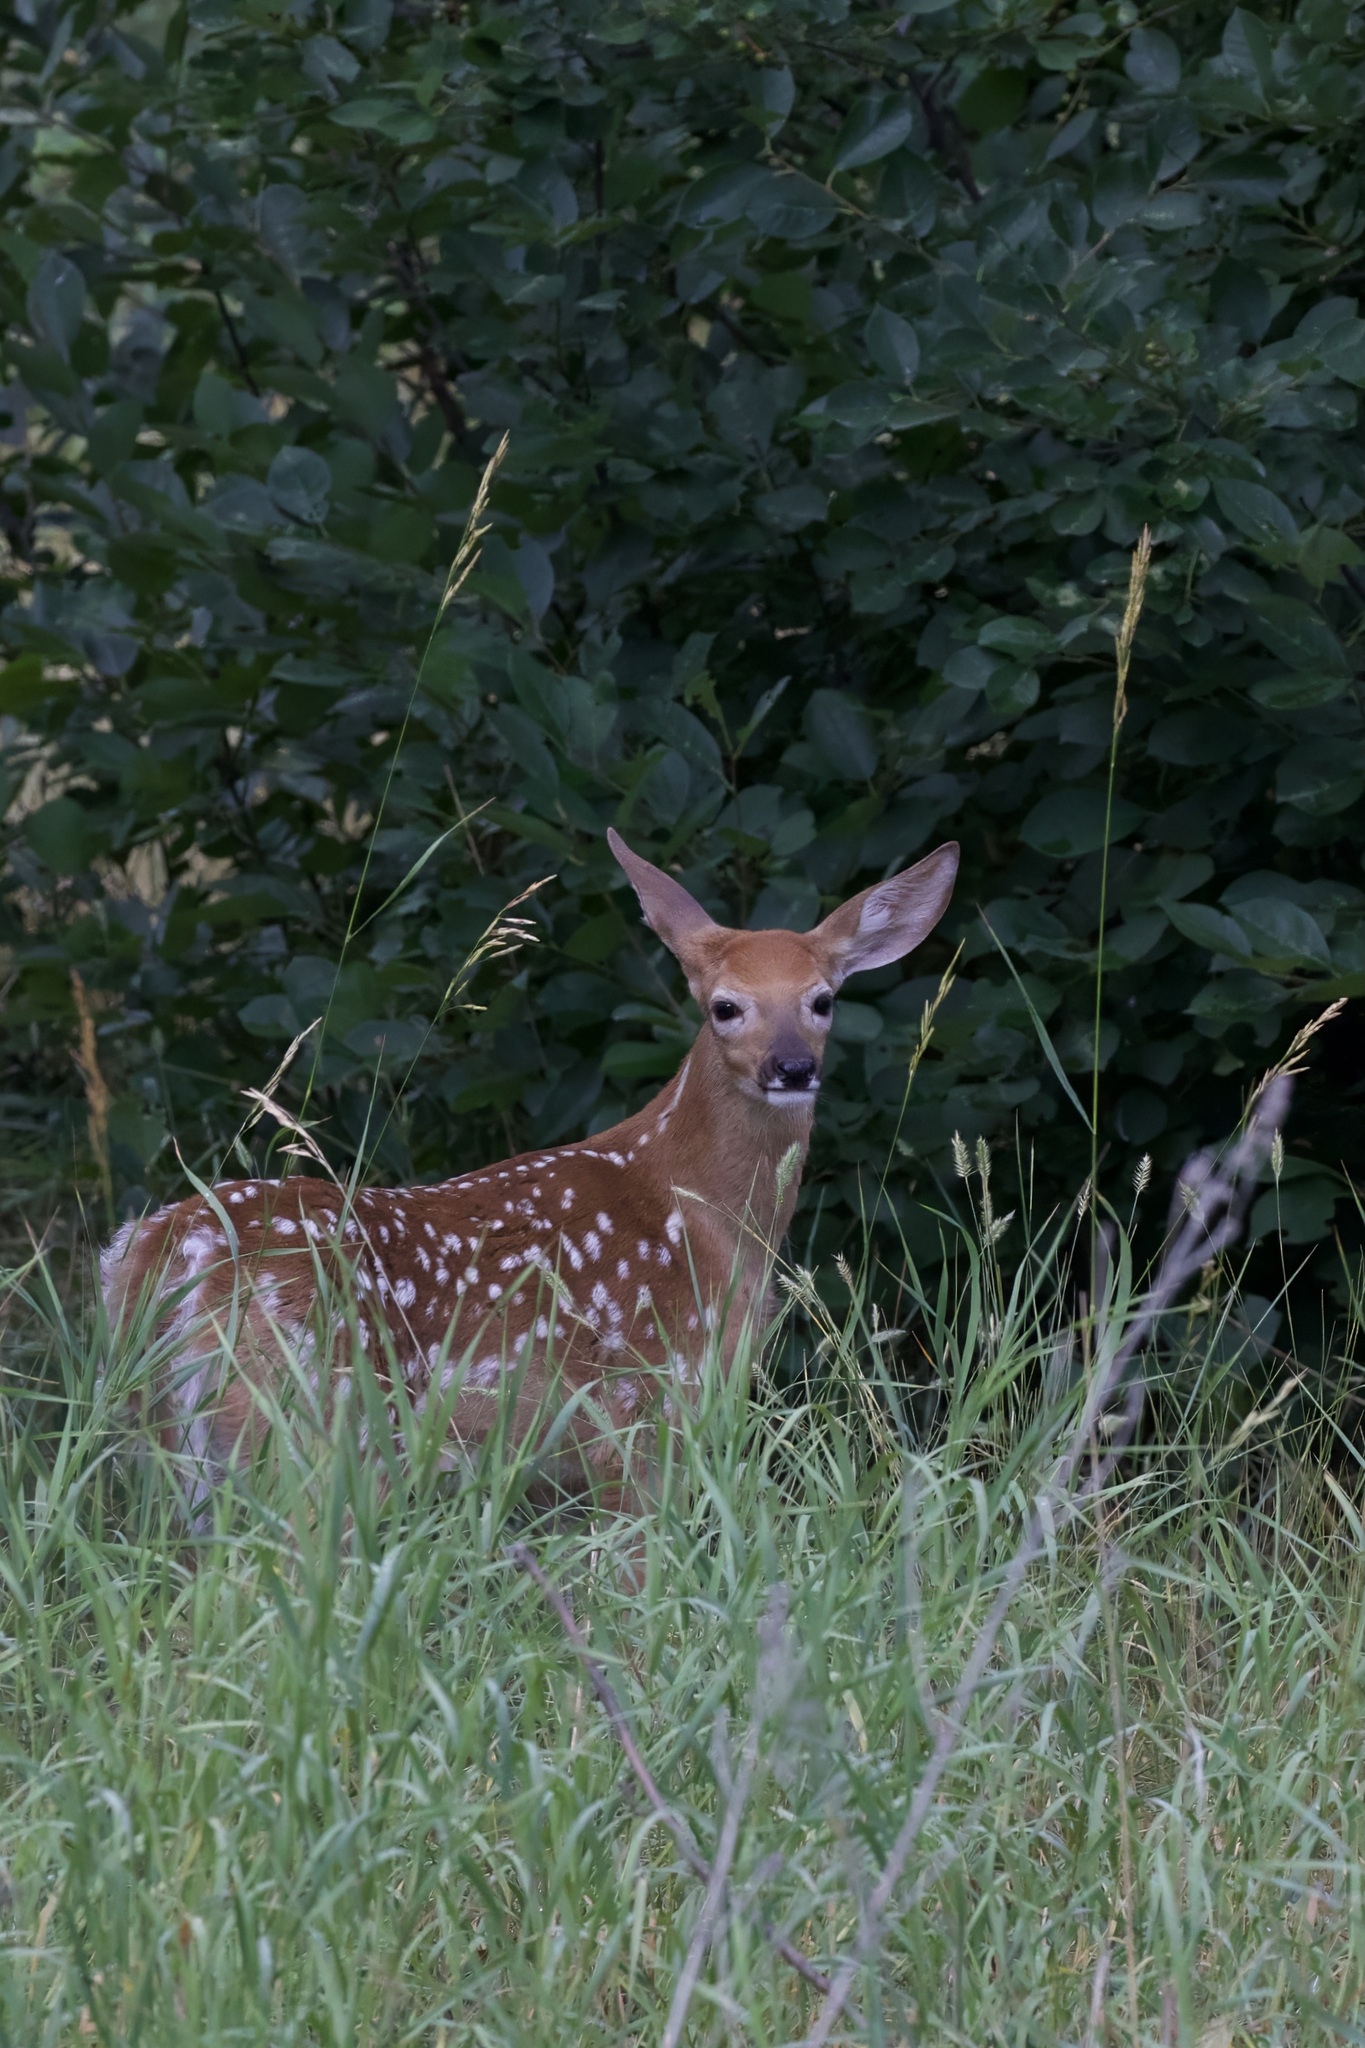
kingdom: Animalia
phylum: Chordata
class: Mammalia
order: Artiodactyla
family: Cervidae
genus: Odocoileus
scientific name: Odocoileus virginianus
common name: White-tailed deer
